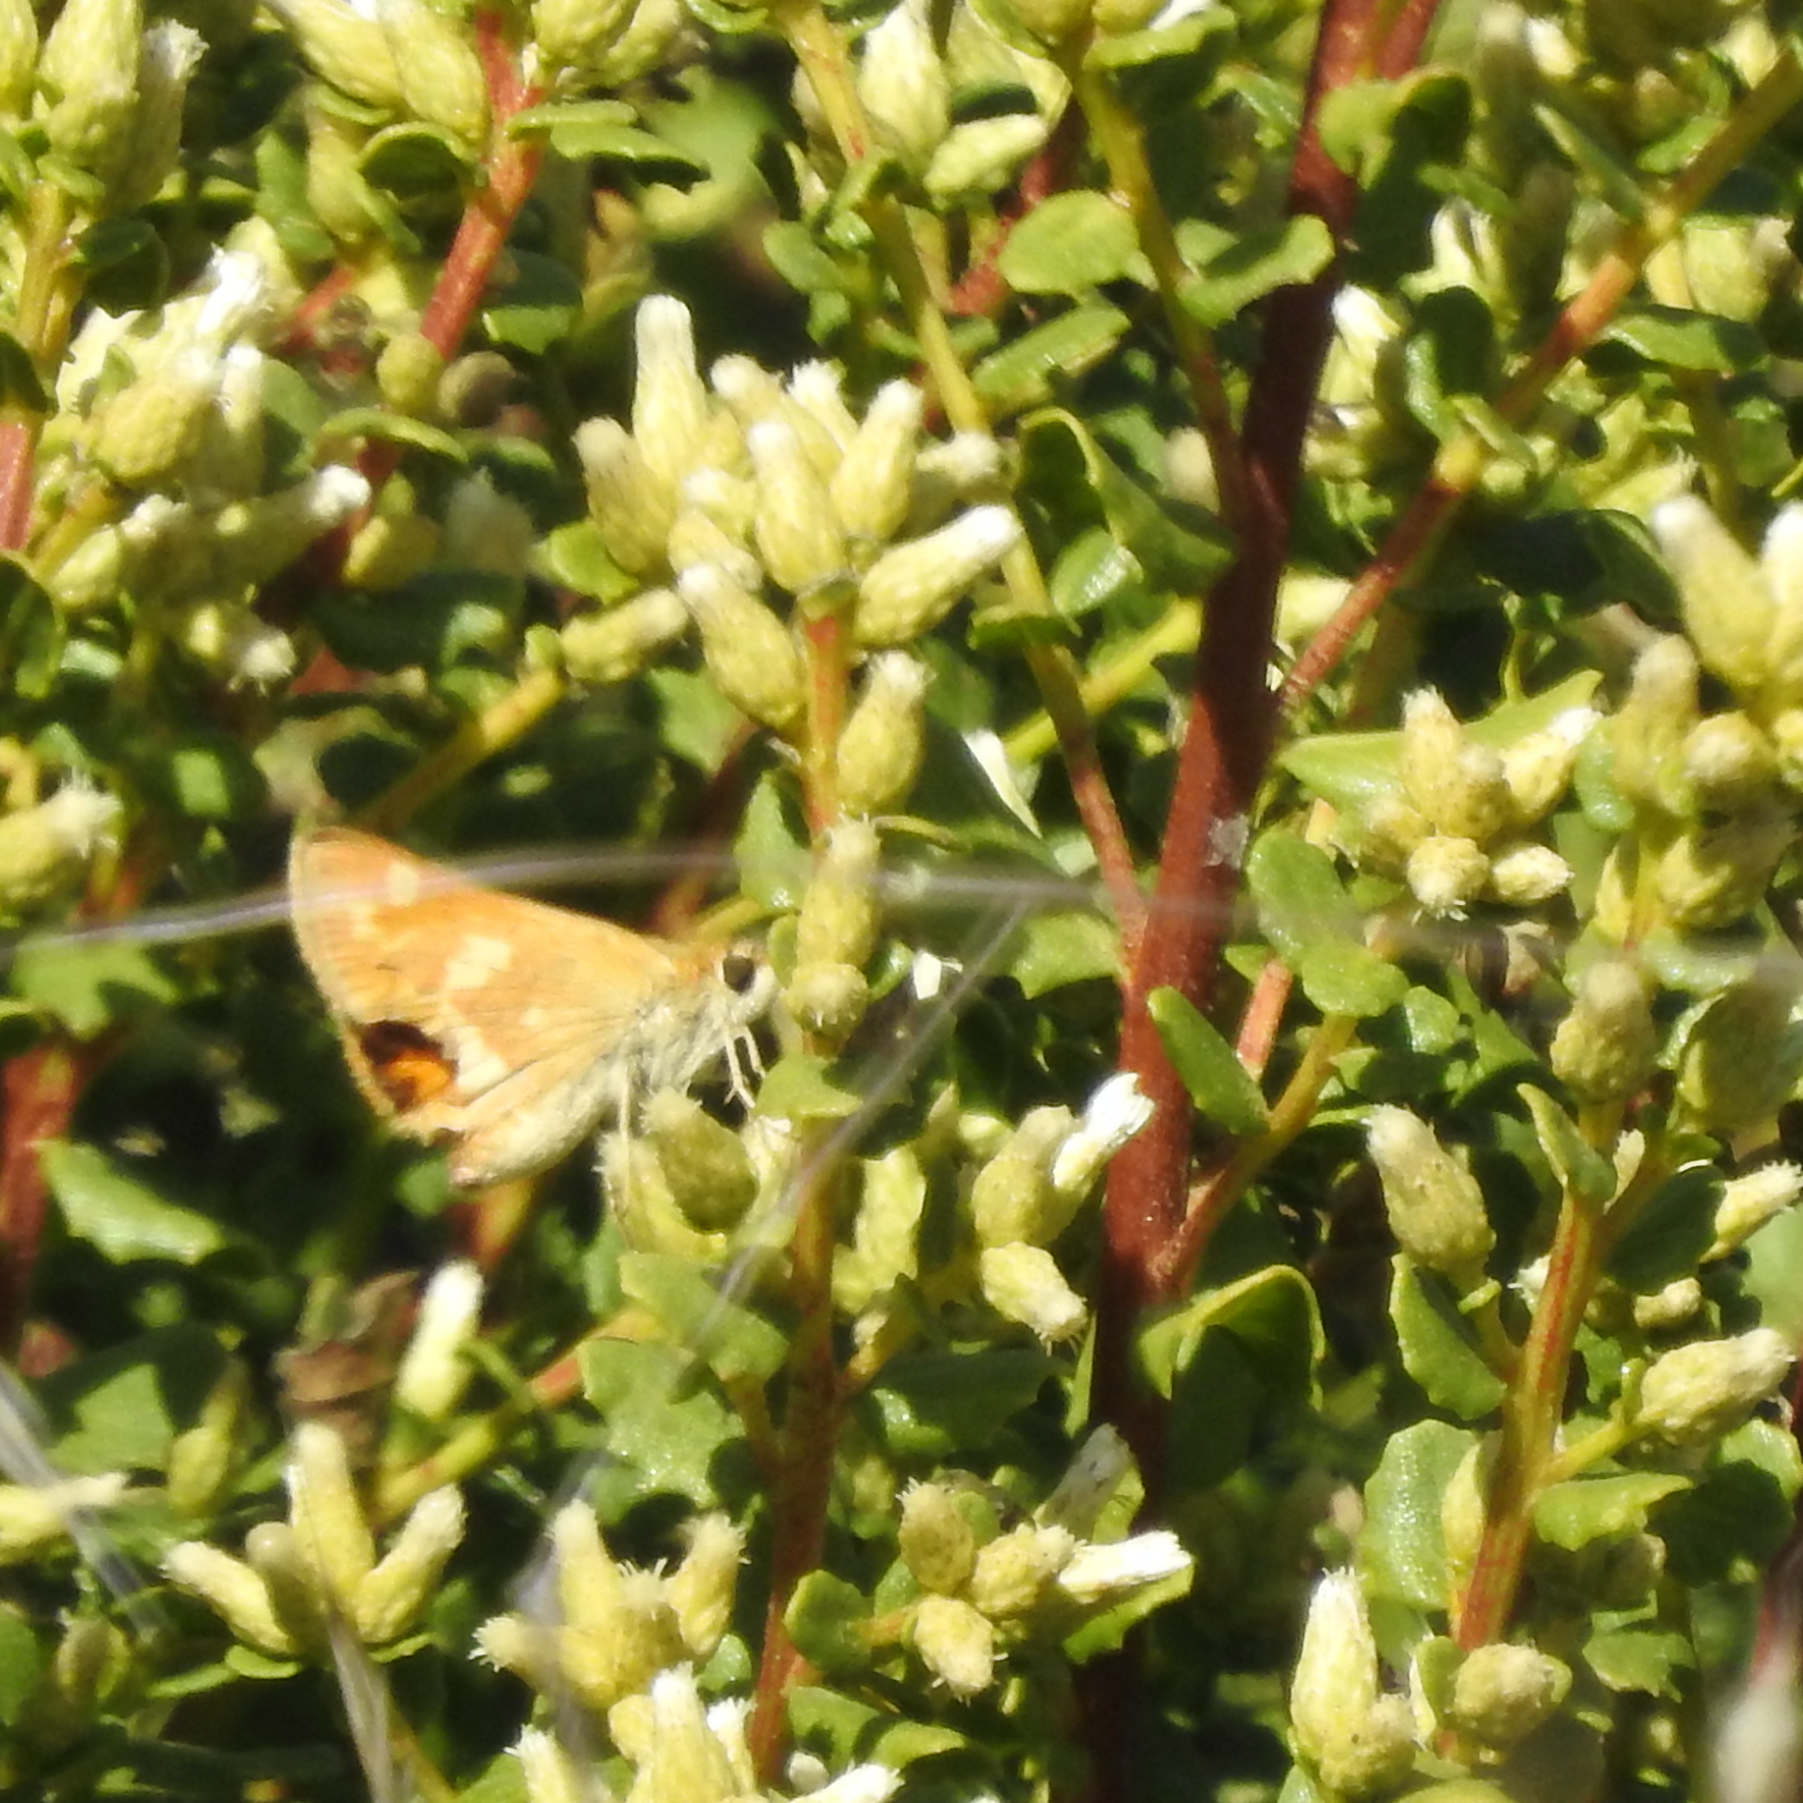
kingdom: Animalia
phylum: Arthropoda
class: Insecta
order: Lepidoptera
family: Hesperiidae
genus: Ochlodes
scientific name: Ochlodes sylvanoides
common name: Woodland skipper
